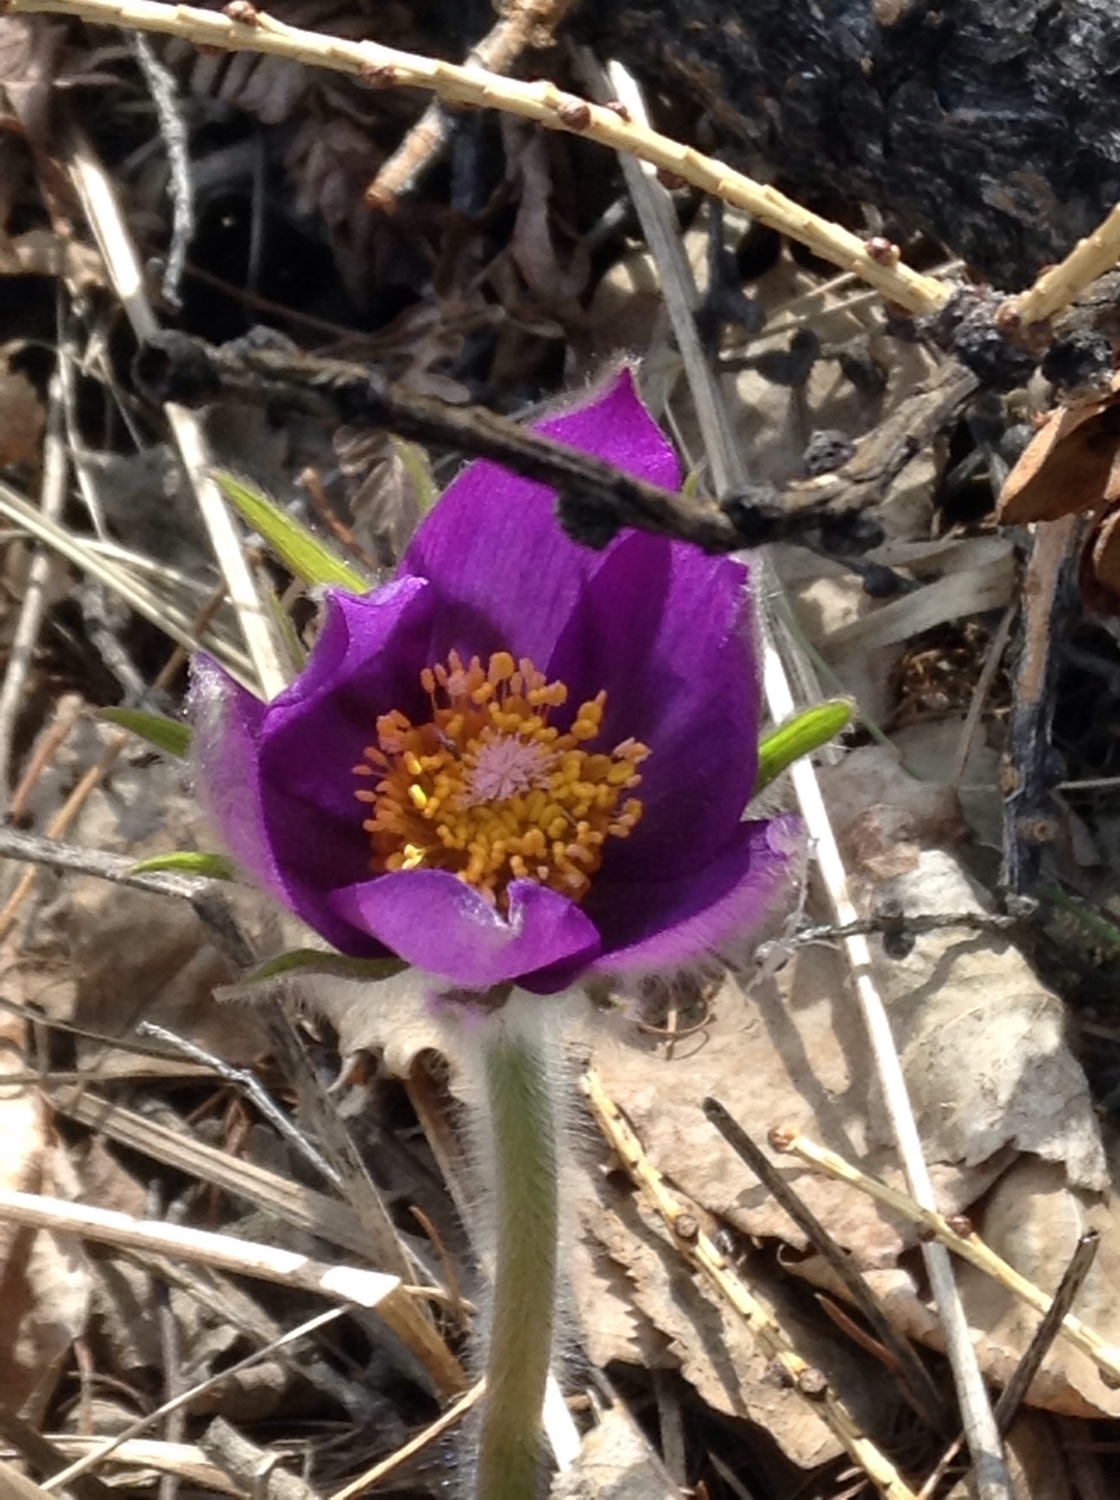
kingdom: Plantae
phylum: Tracheophyta
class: Magnoliopsida
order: Ranunculales
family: Ranunculaceae
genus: Pulsatilla
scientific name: Pulsatilla patens
